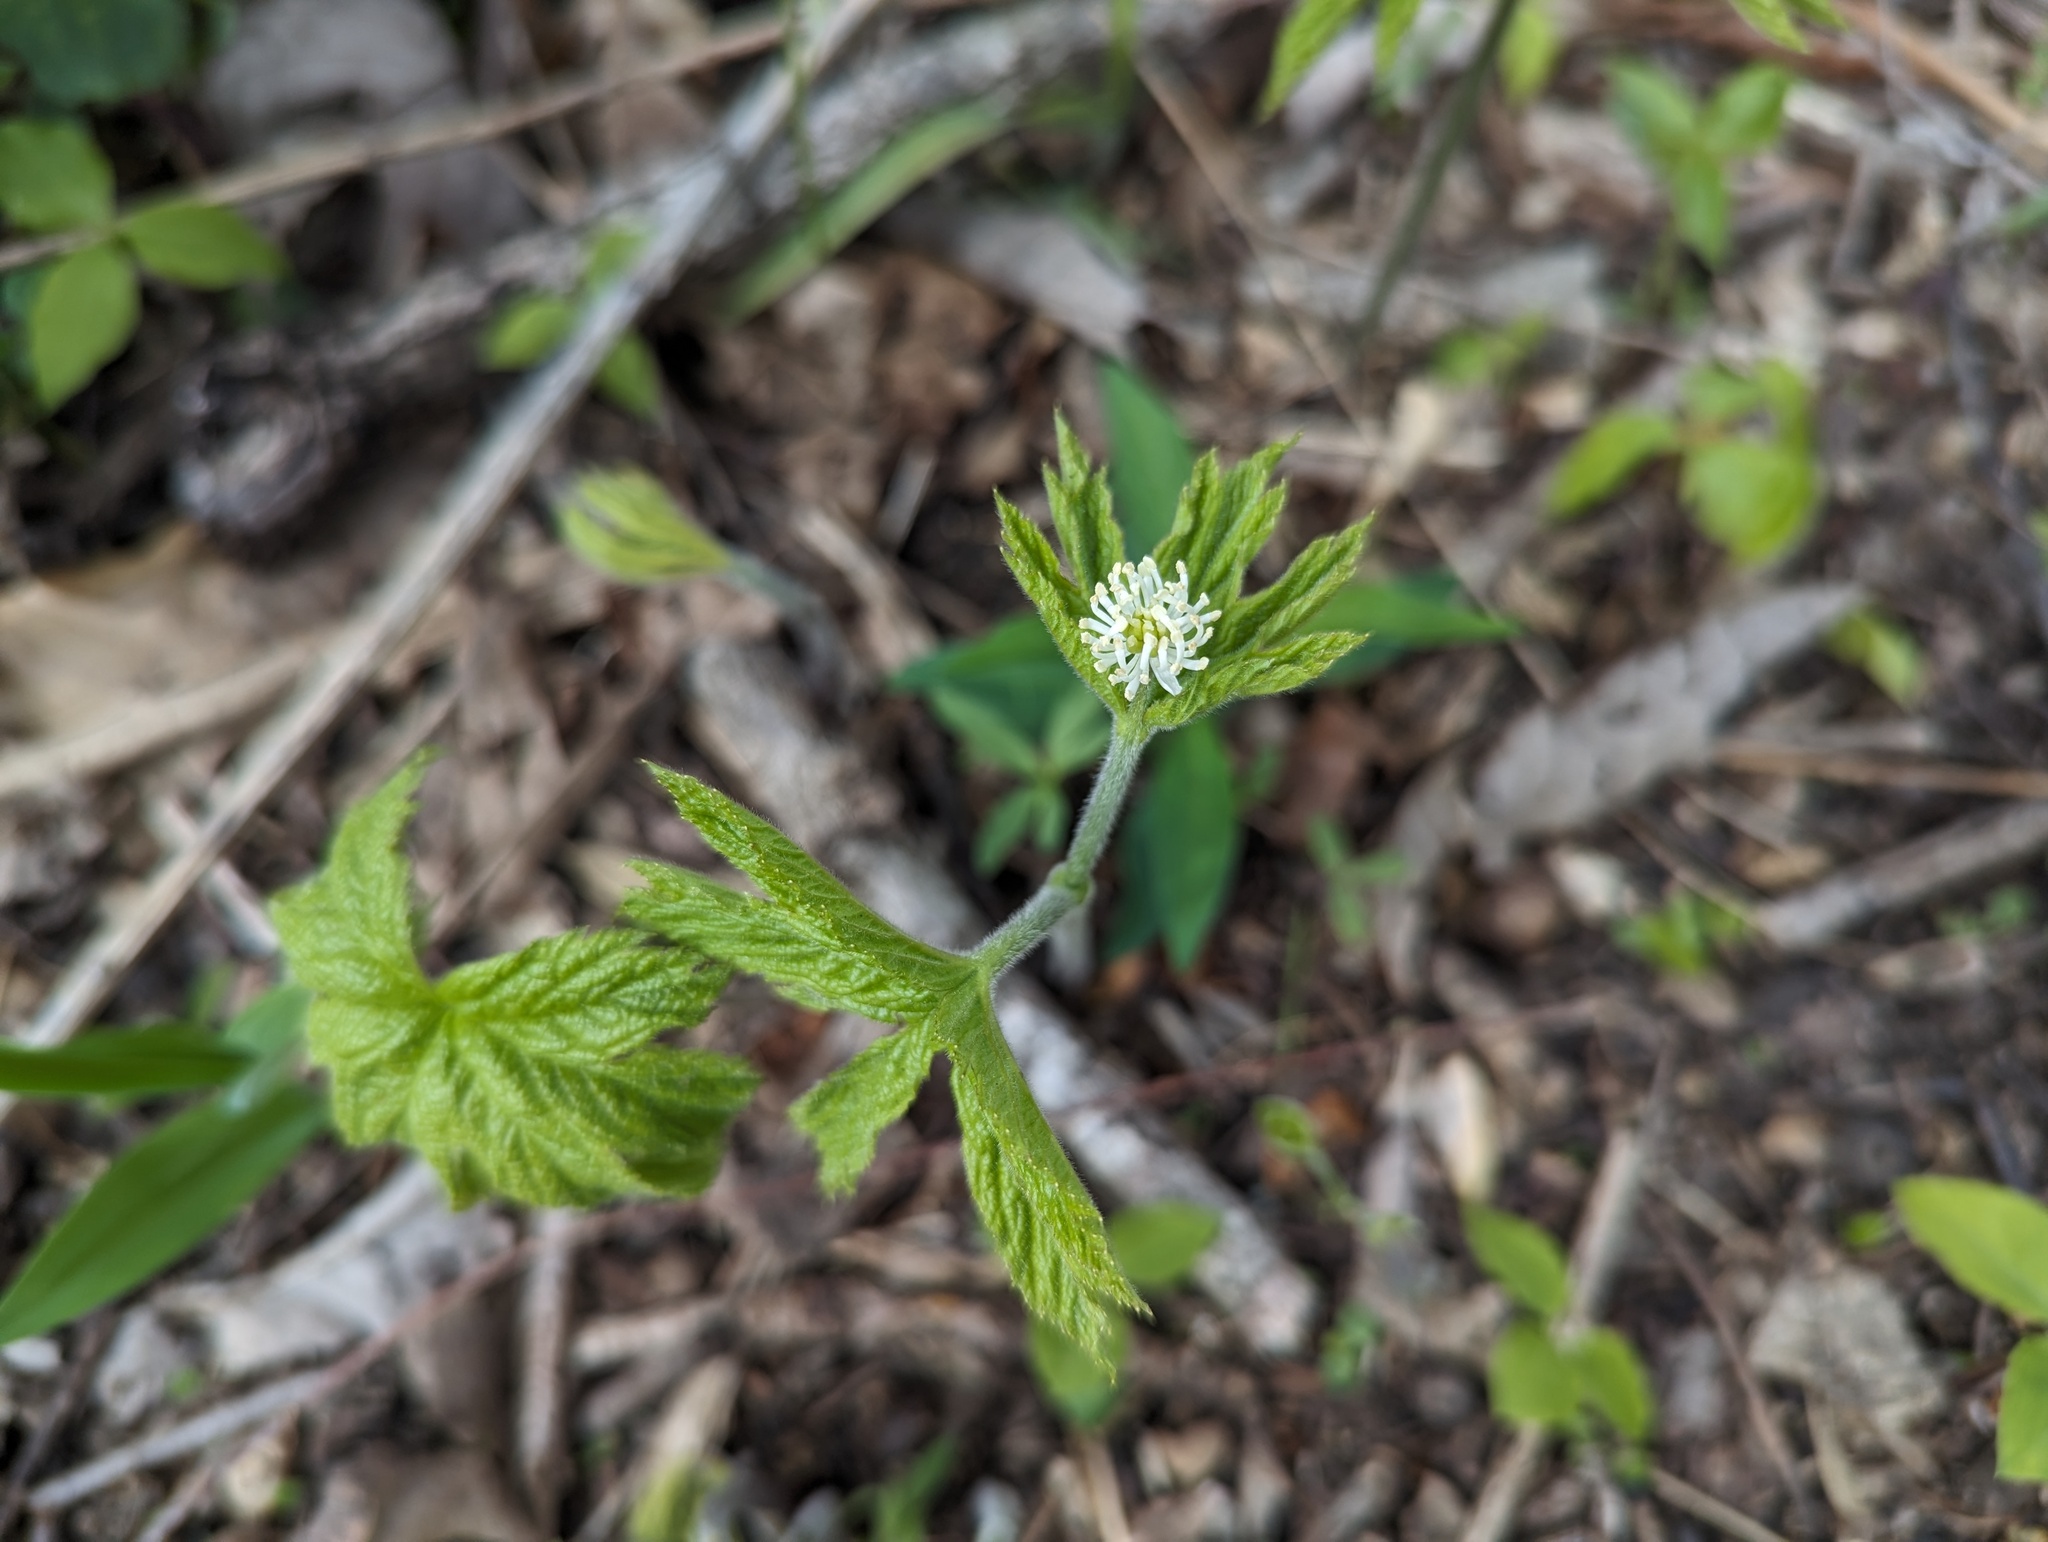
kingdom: Plantae
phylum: Tracheophyta
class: Magnoliopsida
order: Ranunculales
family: Ranunculaceae
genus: Hydrastis
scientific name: Hydrastis canadensis
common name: Goldenseal
